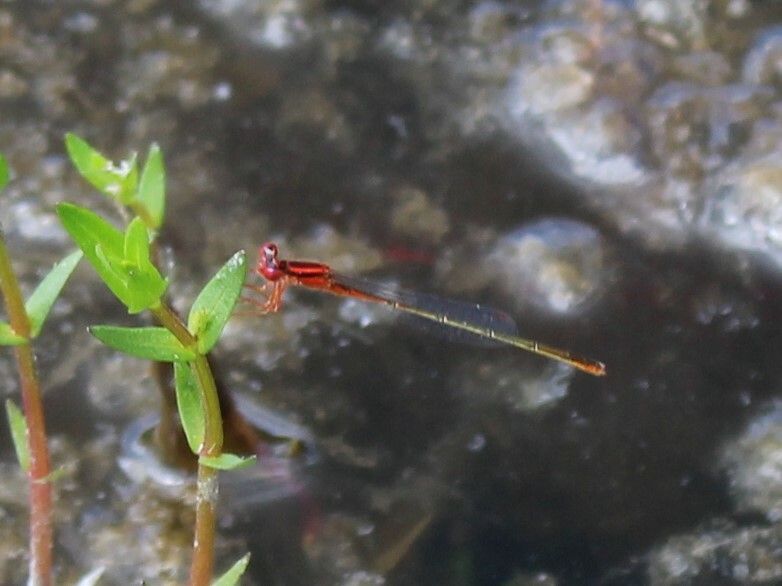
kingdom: Animalia
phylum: Arthropoda
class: Insecta
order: Odonata
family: Coenagrionidae
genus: Enallagma
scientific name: Enallagma pictum
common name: Scarlet bluet
